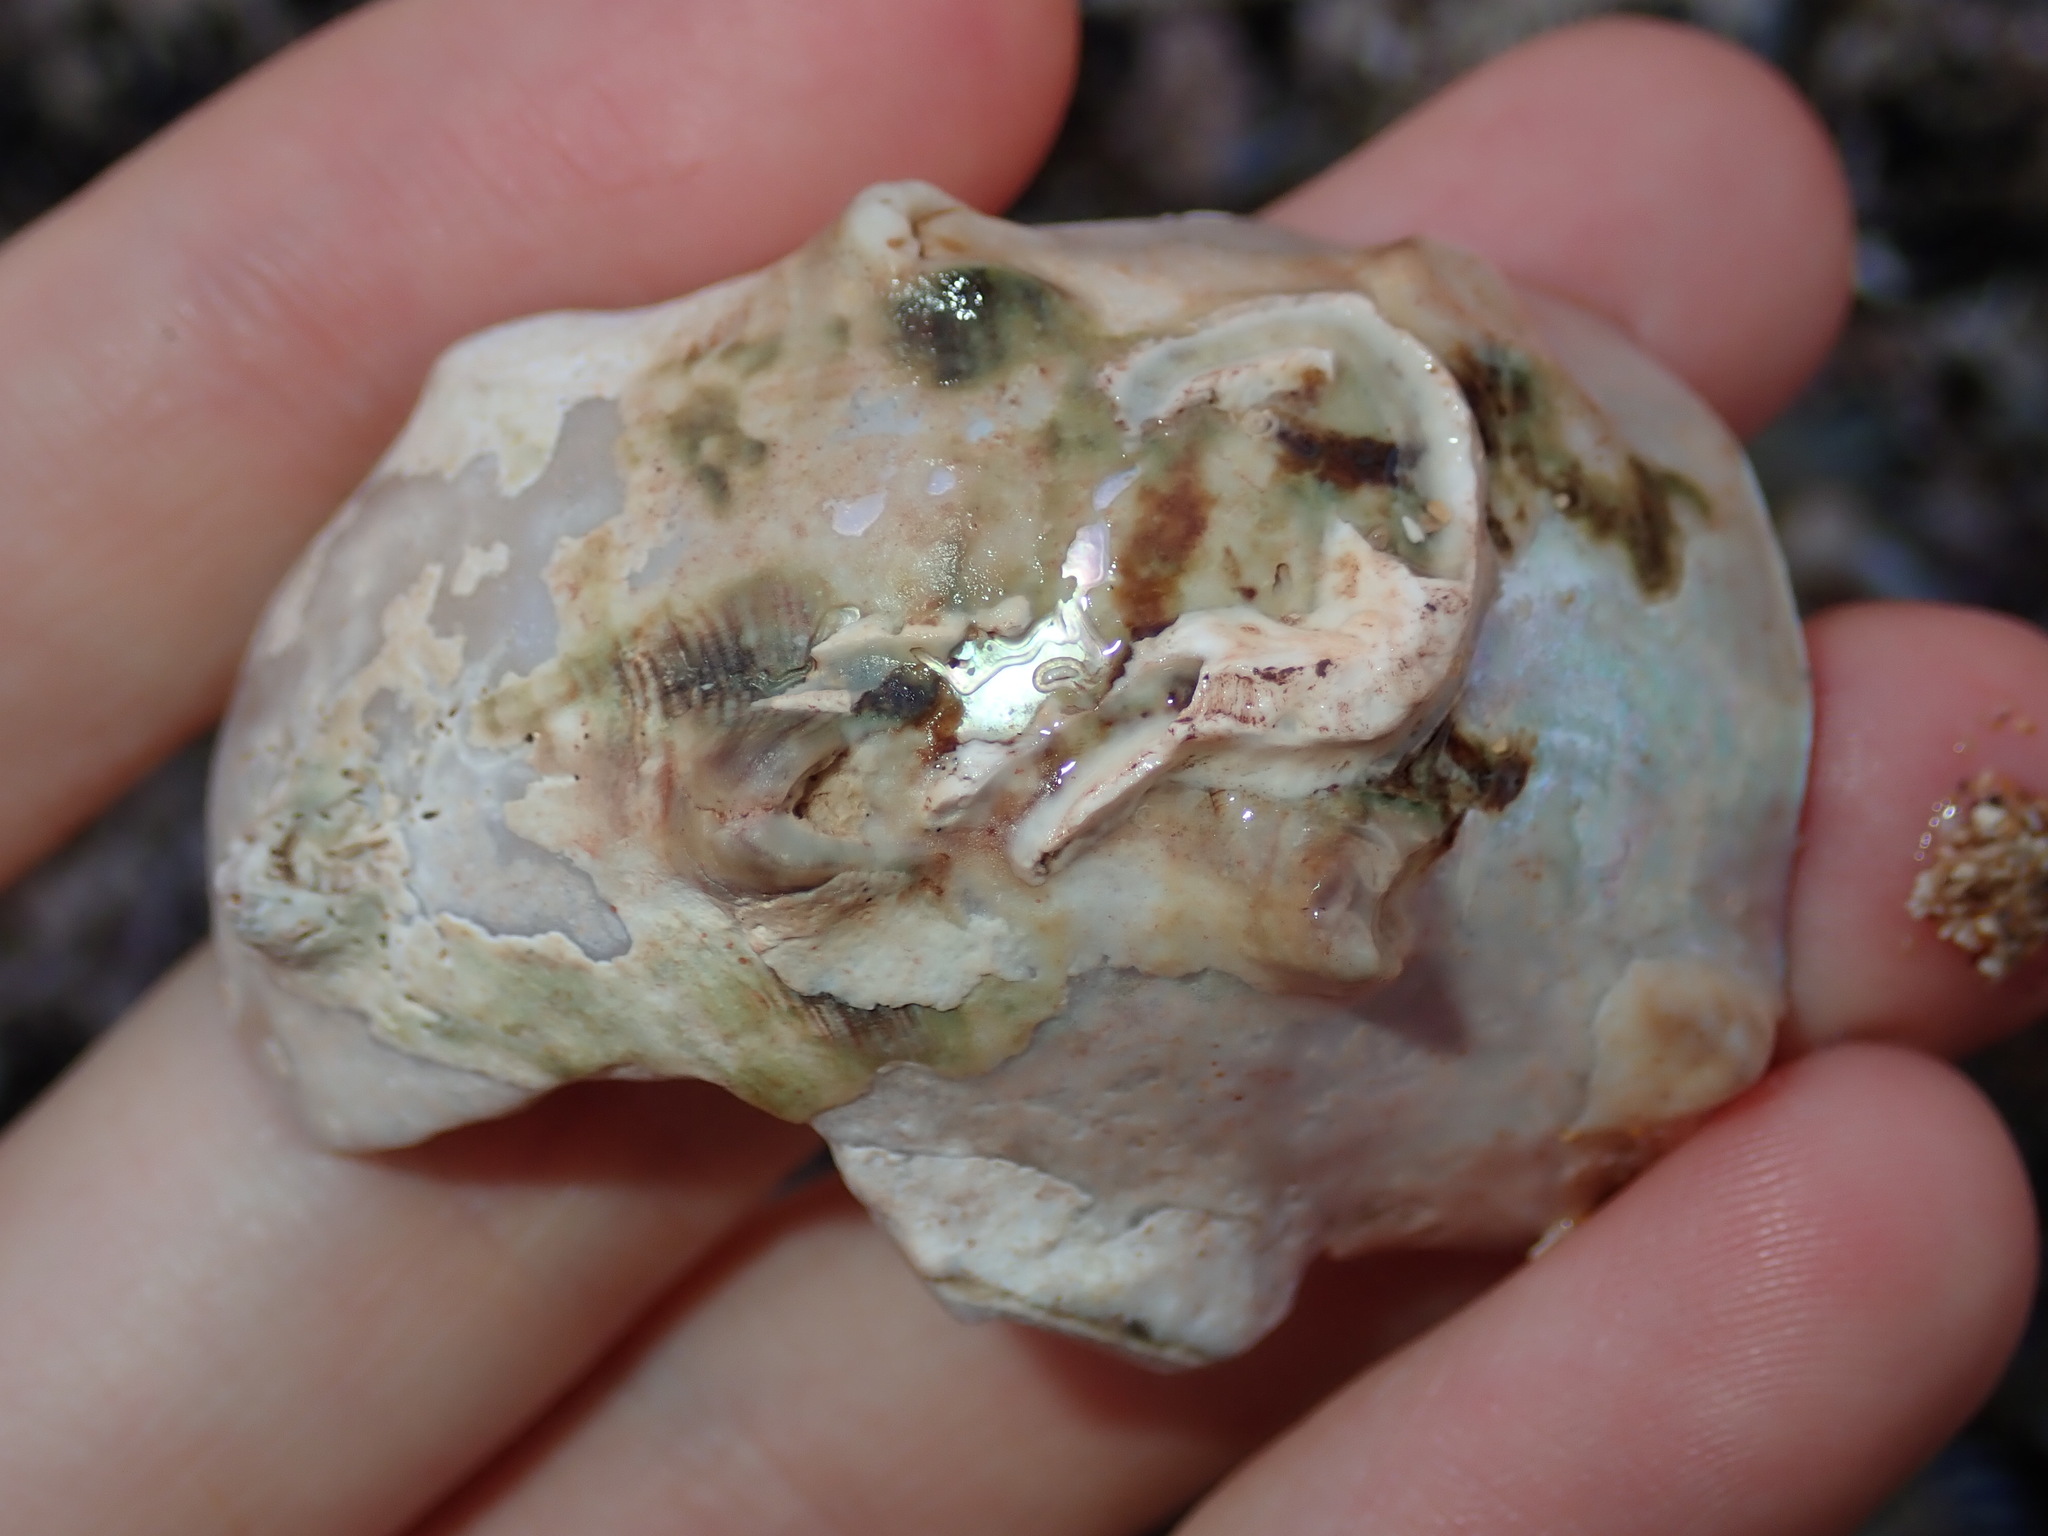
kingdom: Animalia
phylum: Mollusca
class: Gastropoda
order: Trochida
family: Turbinidae
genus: Turbo
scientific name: Turbo militaris
